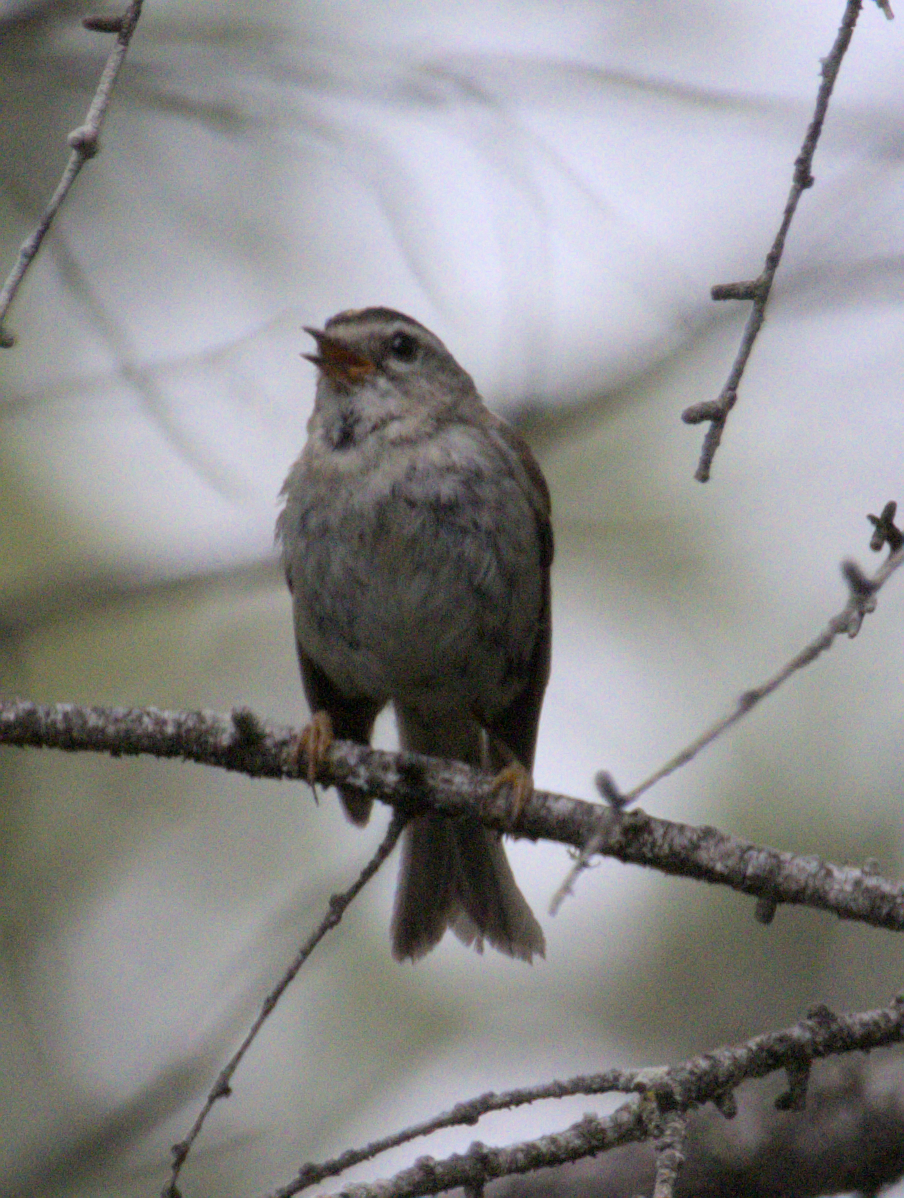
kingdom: Animalia
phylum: Chordata
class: Aves
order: Passeriformes
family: Regulidae
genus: Regulus
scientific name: Regulus satrapa
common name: Golden-crowned kinglet
